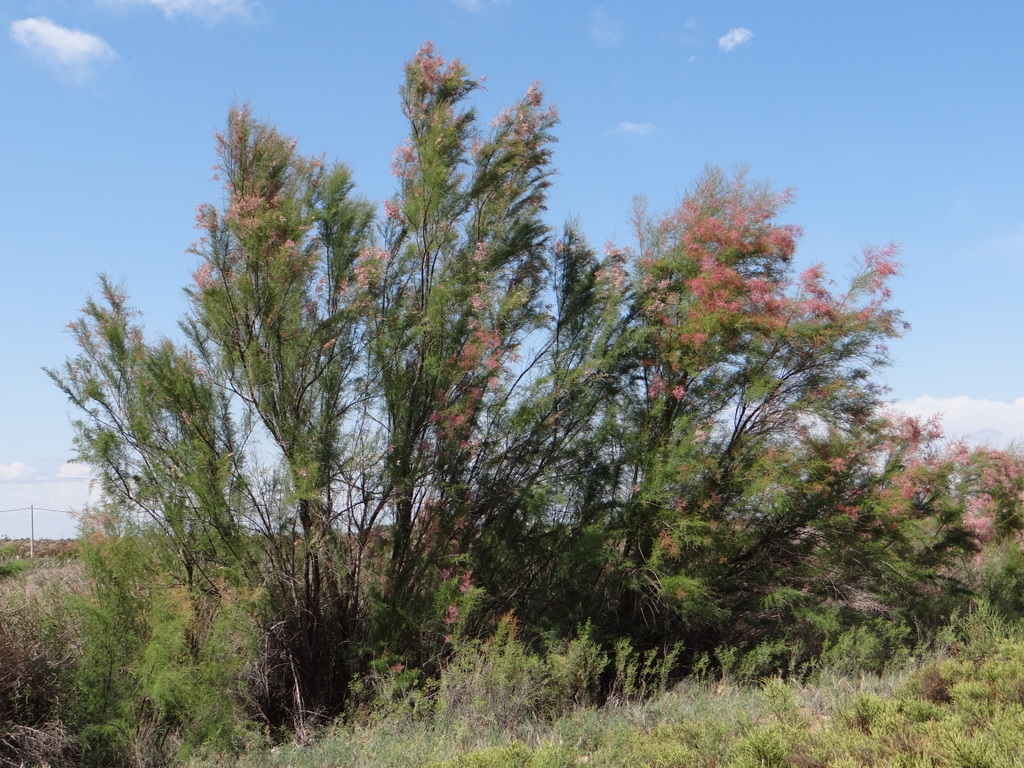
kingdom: Plantae
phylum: Tracheophyta
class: Magnoliopsida
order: Caryophyllales
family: Tamaricaceae
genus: Tamarix
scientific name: Tamarix gallica
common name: Tamarisk
